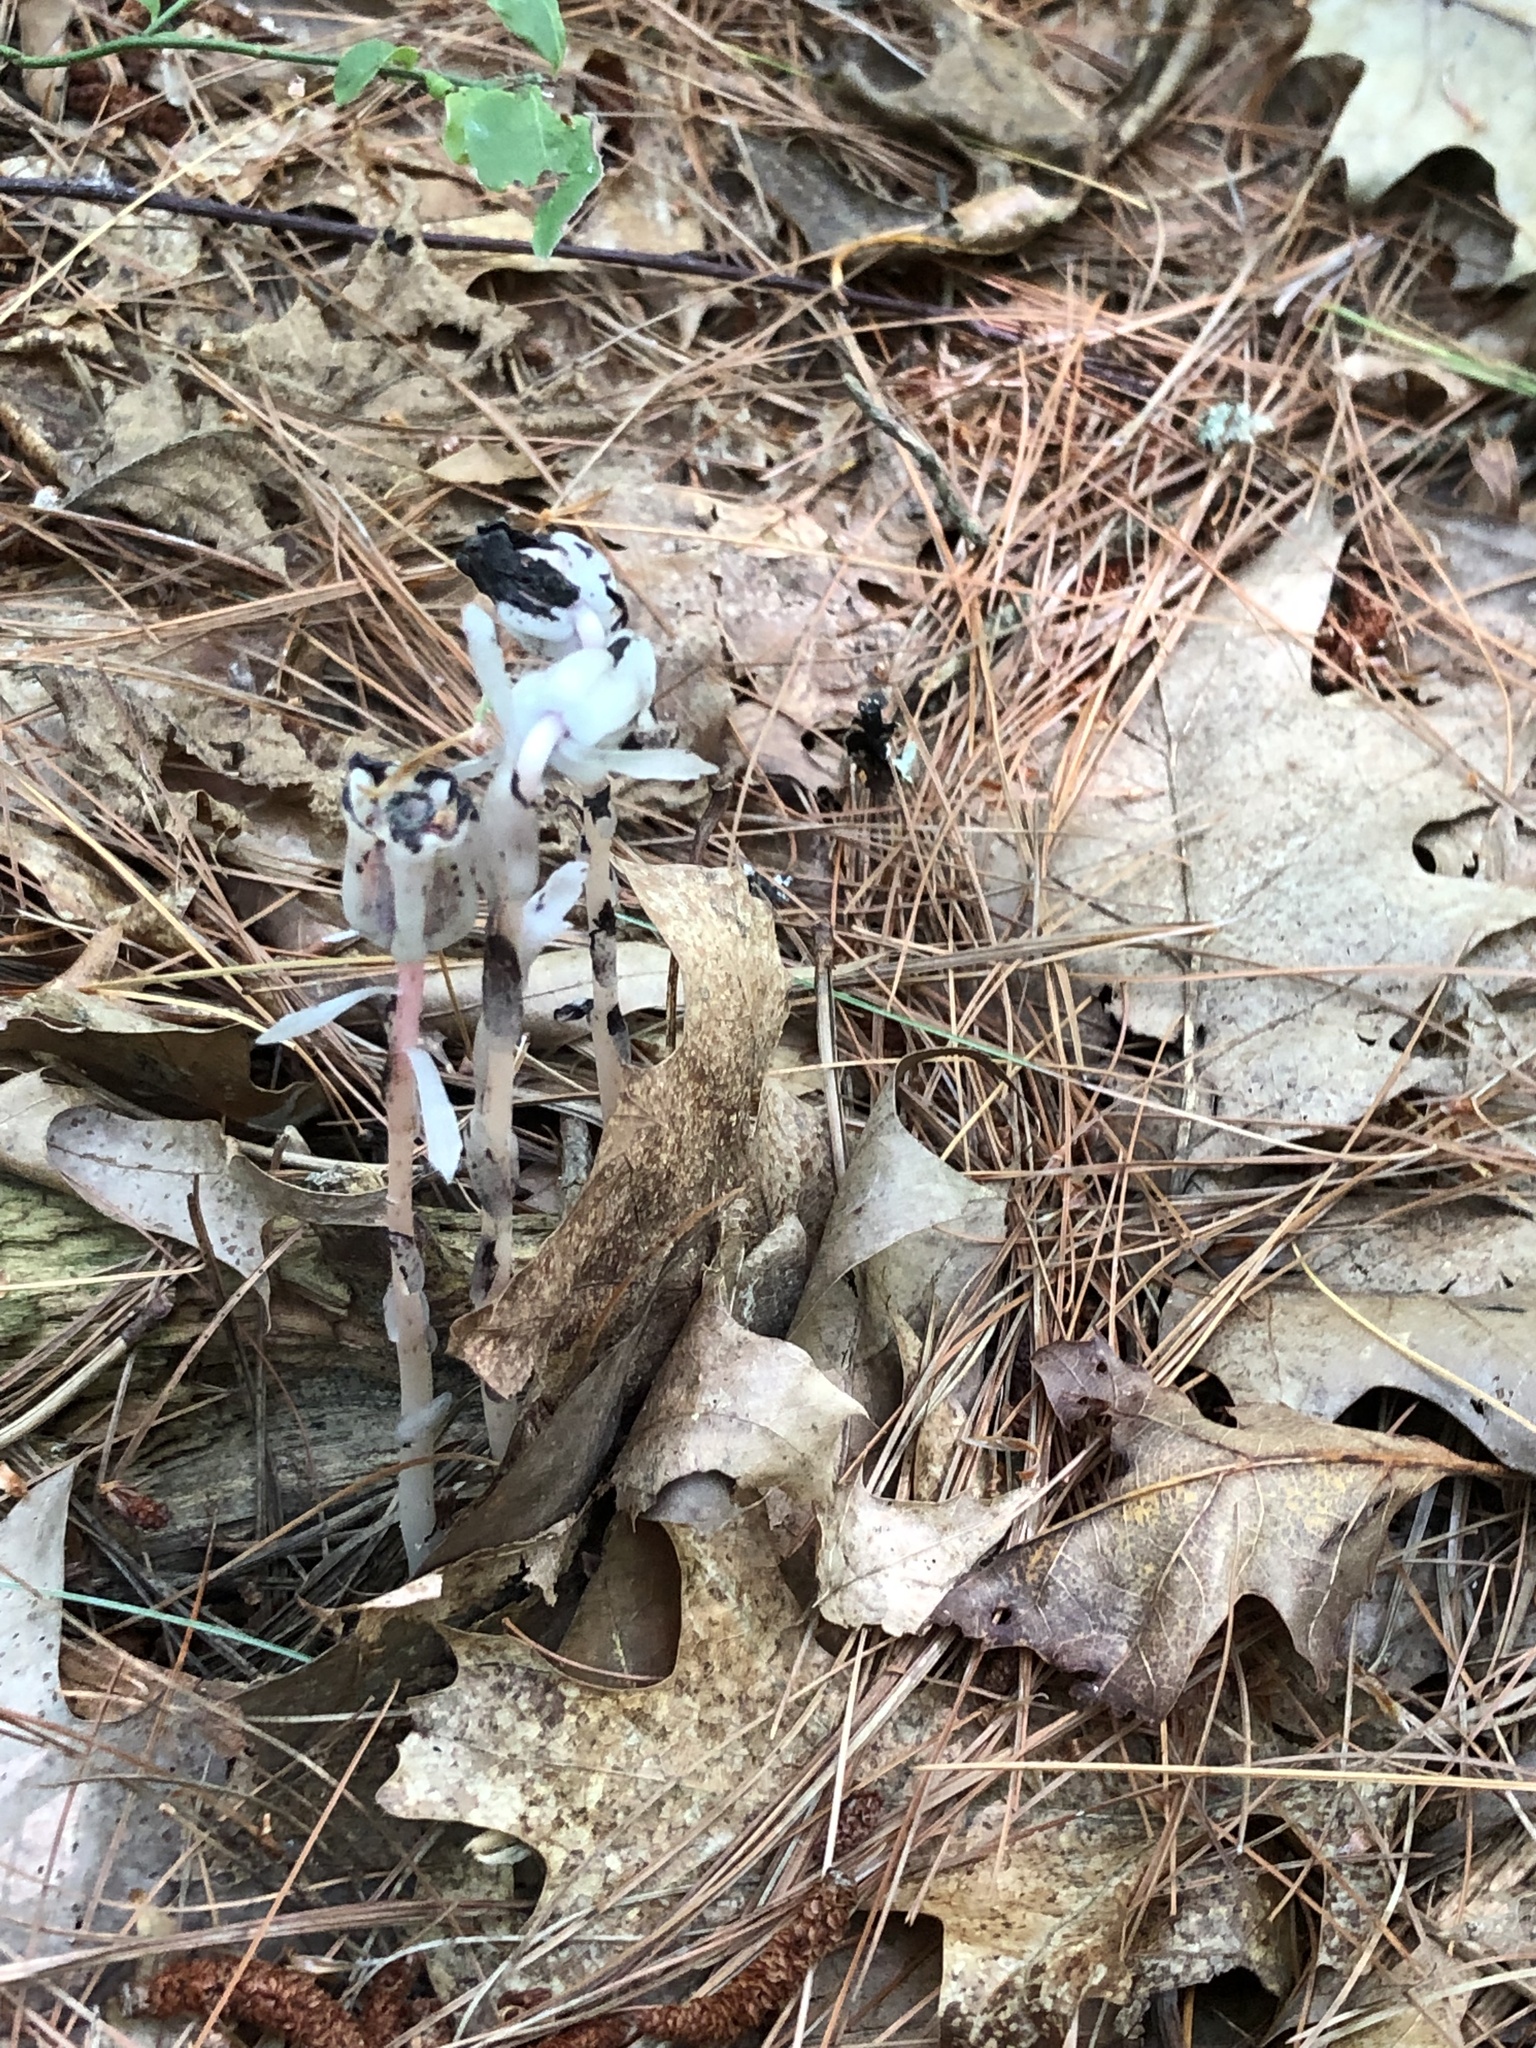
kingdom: Plantae
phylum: Tracheophyta
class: Magnoliopsida
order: Ericales
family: Ericaceae
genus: Monotropa
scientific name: Monotropa uniflora
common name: Convulsion root
